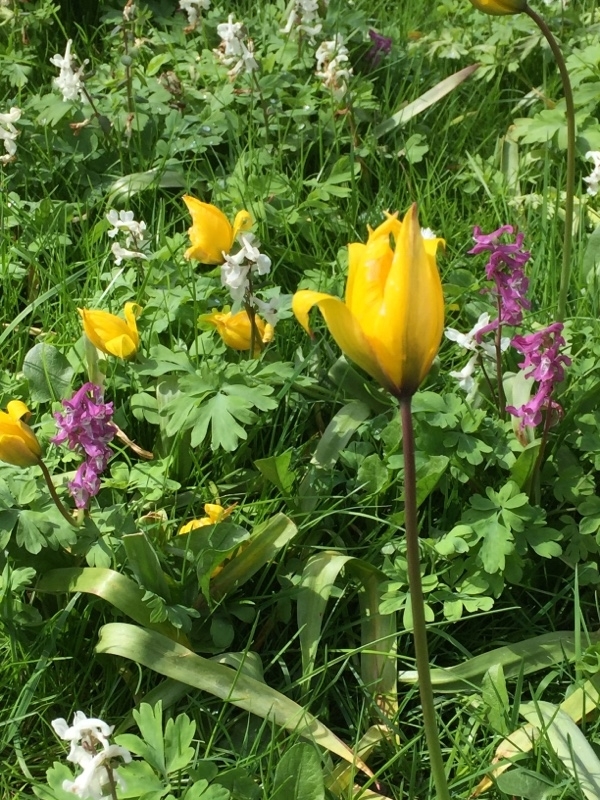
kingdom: Plantae
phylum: Tracheophyta
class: Liliopsida
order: Liliales
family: Liliaceae
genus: Tulipa
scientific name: Tulipa sylvestris
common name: Wild tulip
